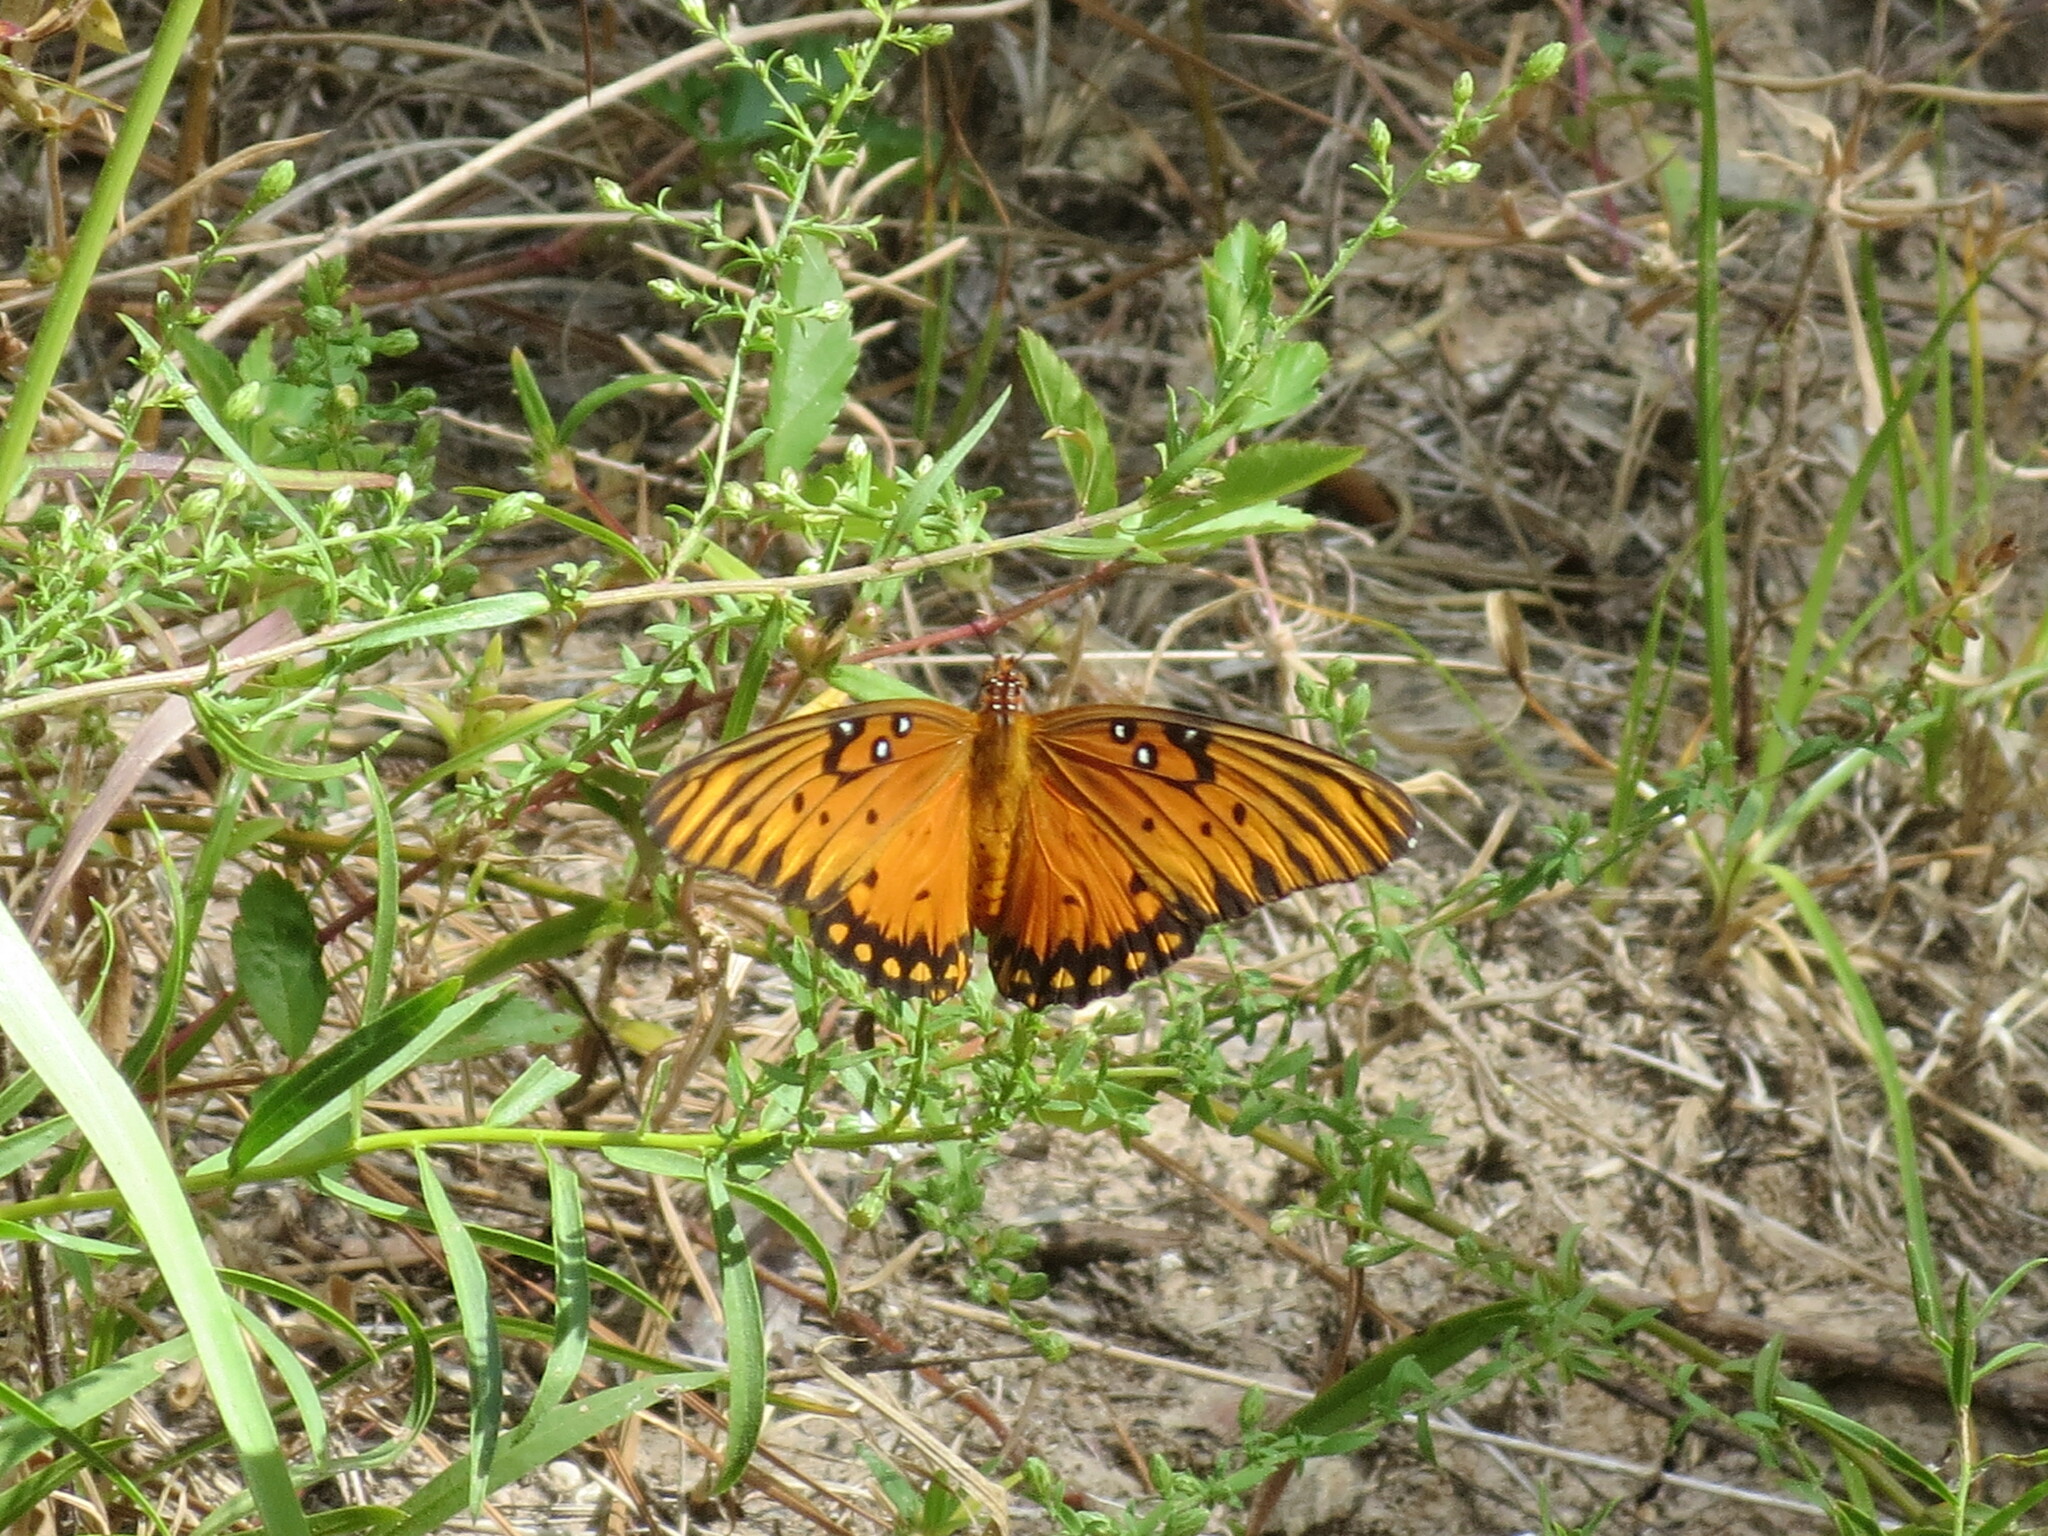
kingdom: Animalia
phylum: Arthropoda
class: Insecta
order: Lepidoptera
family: Nymphalidae
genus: Dione
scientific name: Dione vanillae
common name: Gulf fritillary
